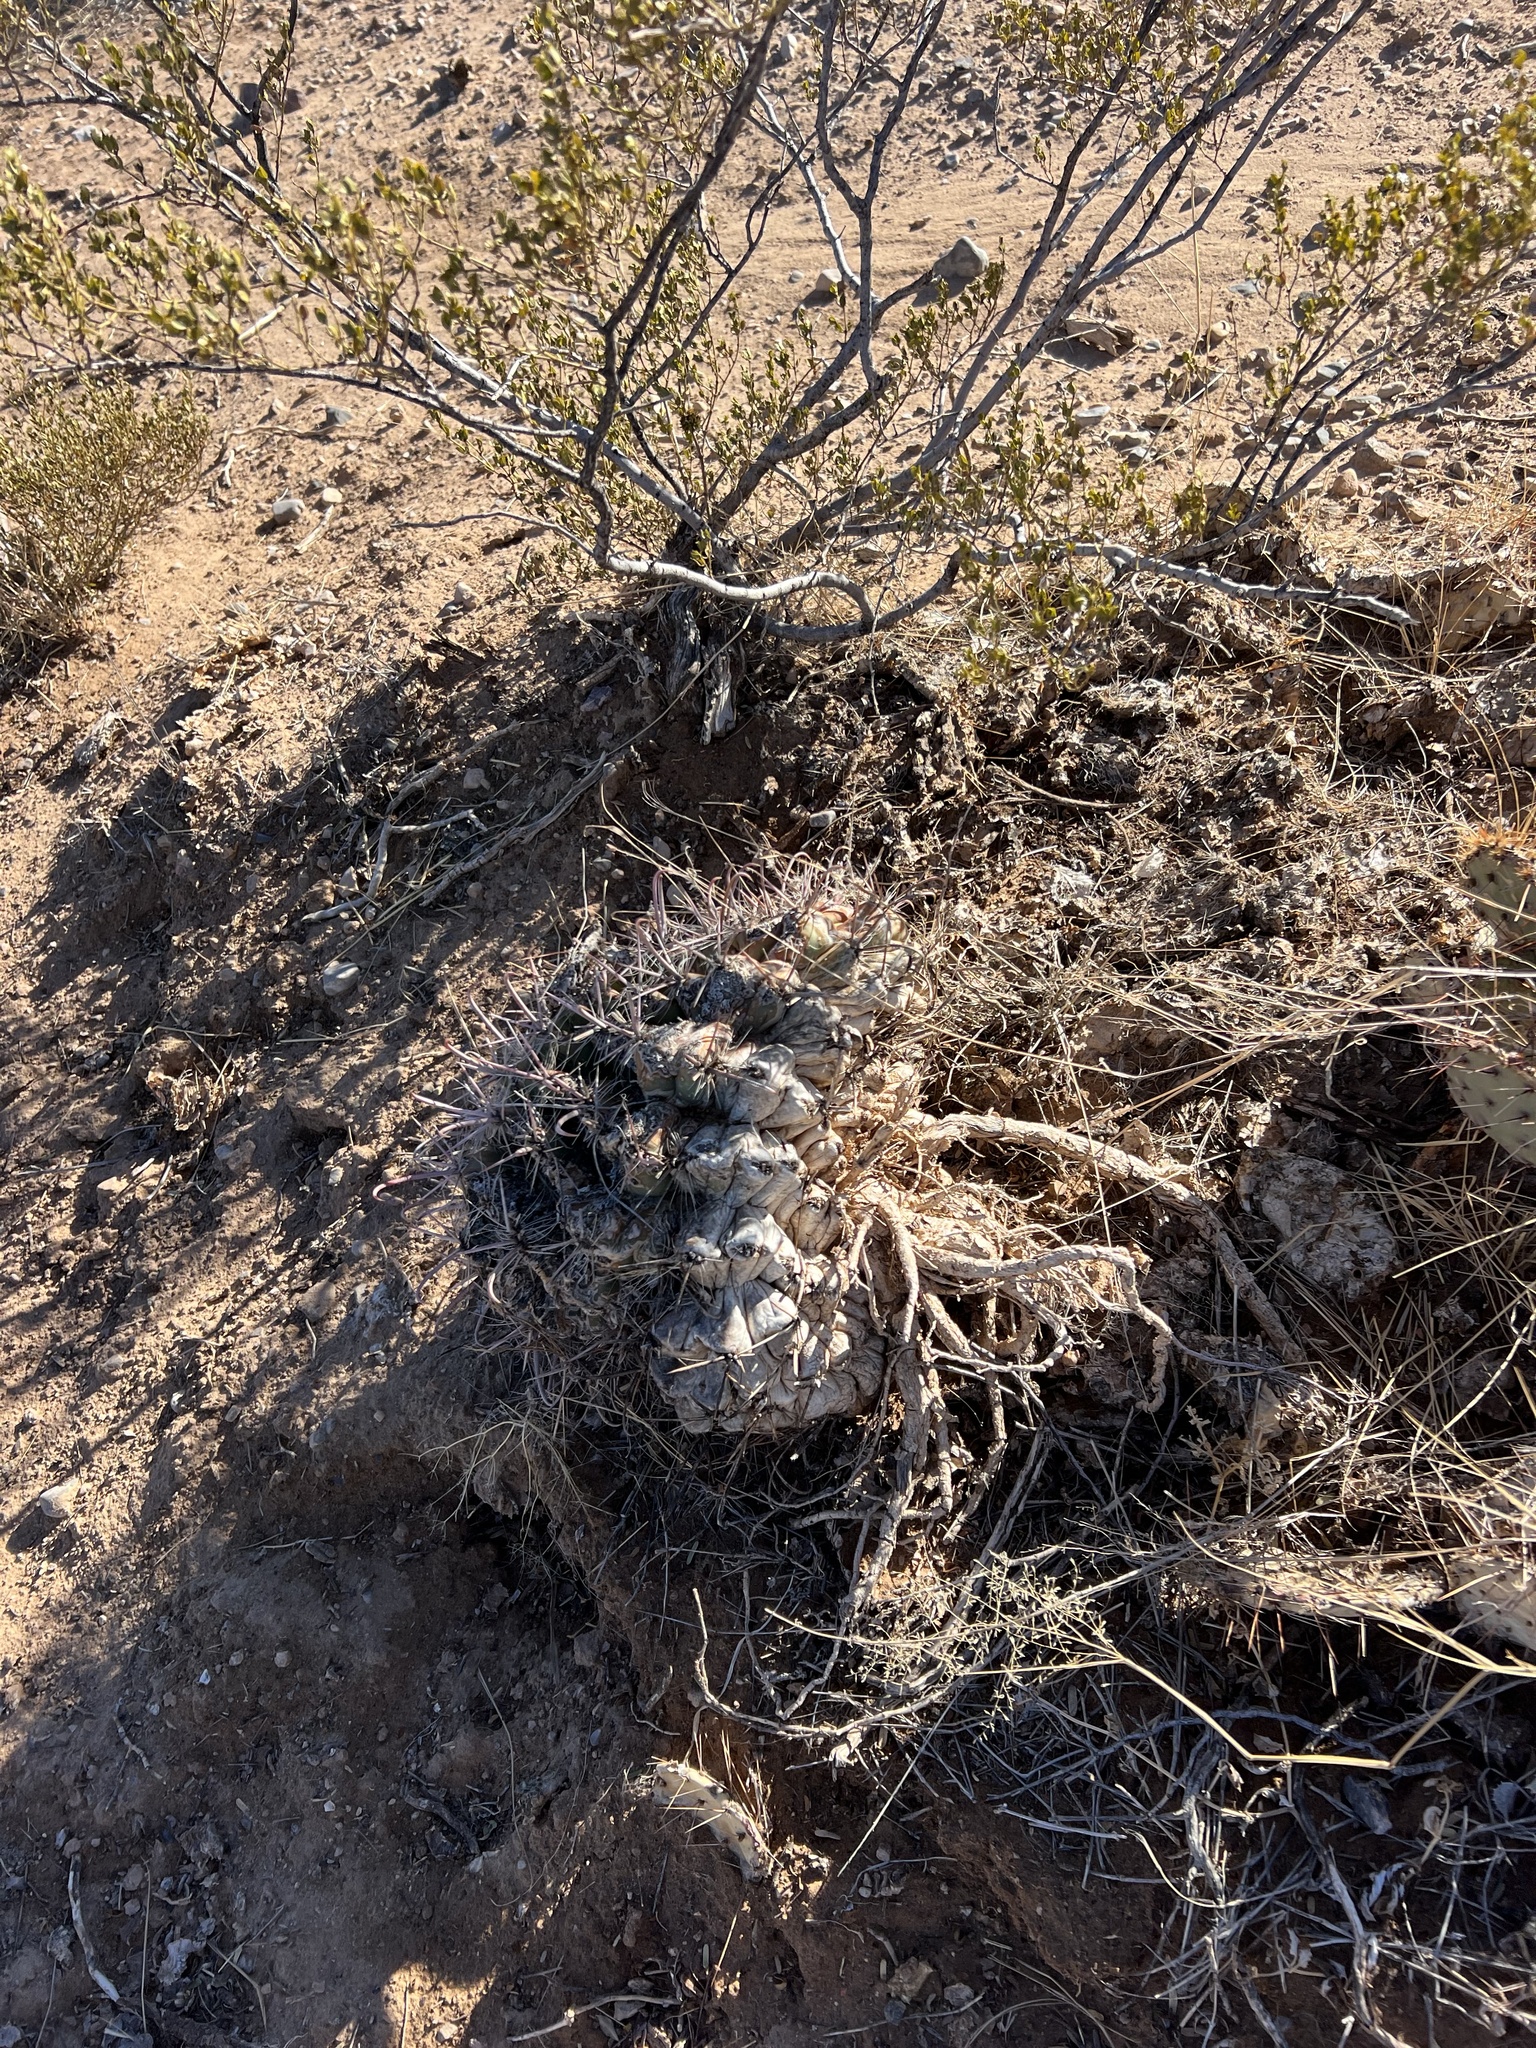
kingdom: Plantae
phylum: Tracheophyta
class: Magnoliopsida
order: Caryophyllales
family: Cactaceae
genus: Ferocactus
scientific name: Ferocactus wislizeni
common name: Candy barrel cactus
